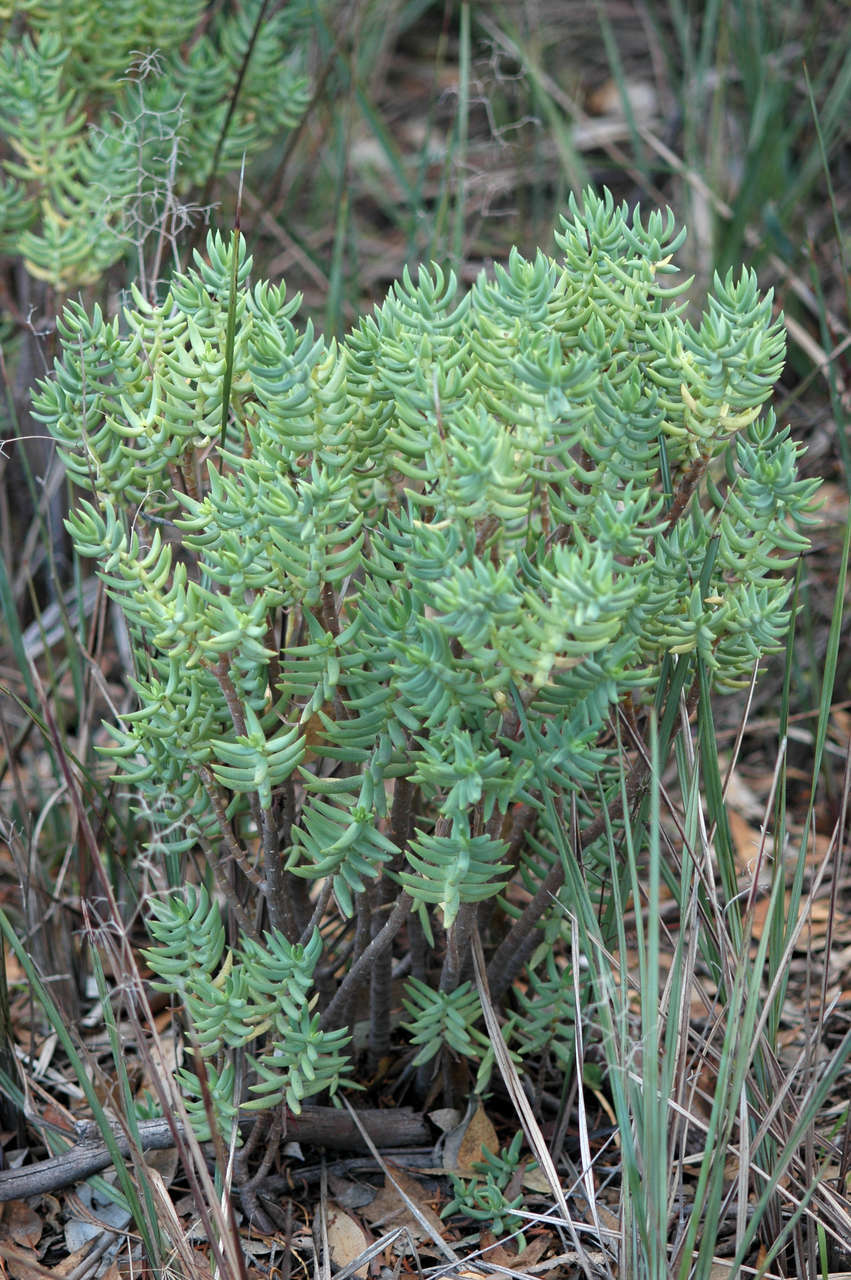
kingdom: Plantae
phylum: Tracheophyta
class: Magnoliopsida
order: Saxifragales
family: Crassulaceae
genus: Crassula
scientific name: Crassula tetragona
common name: Pygmyweed
